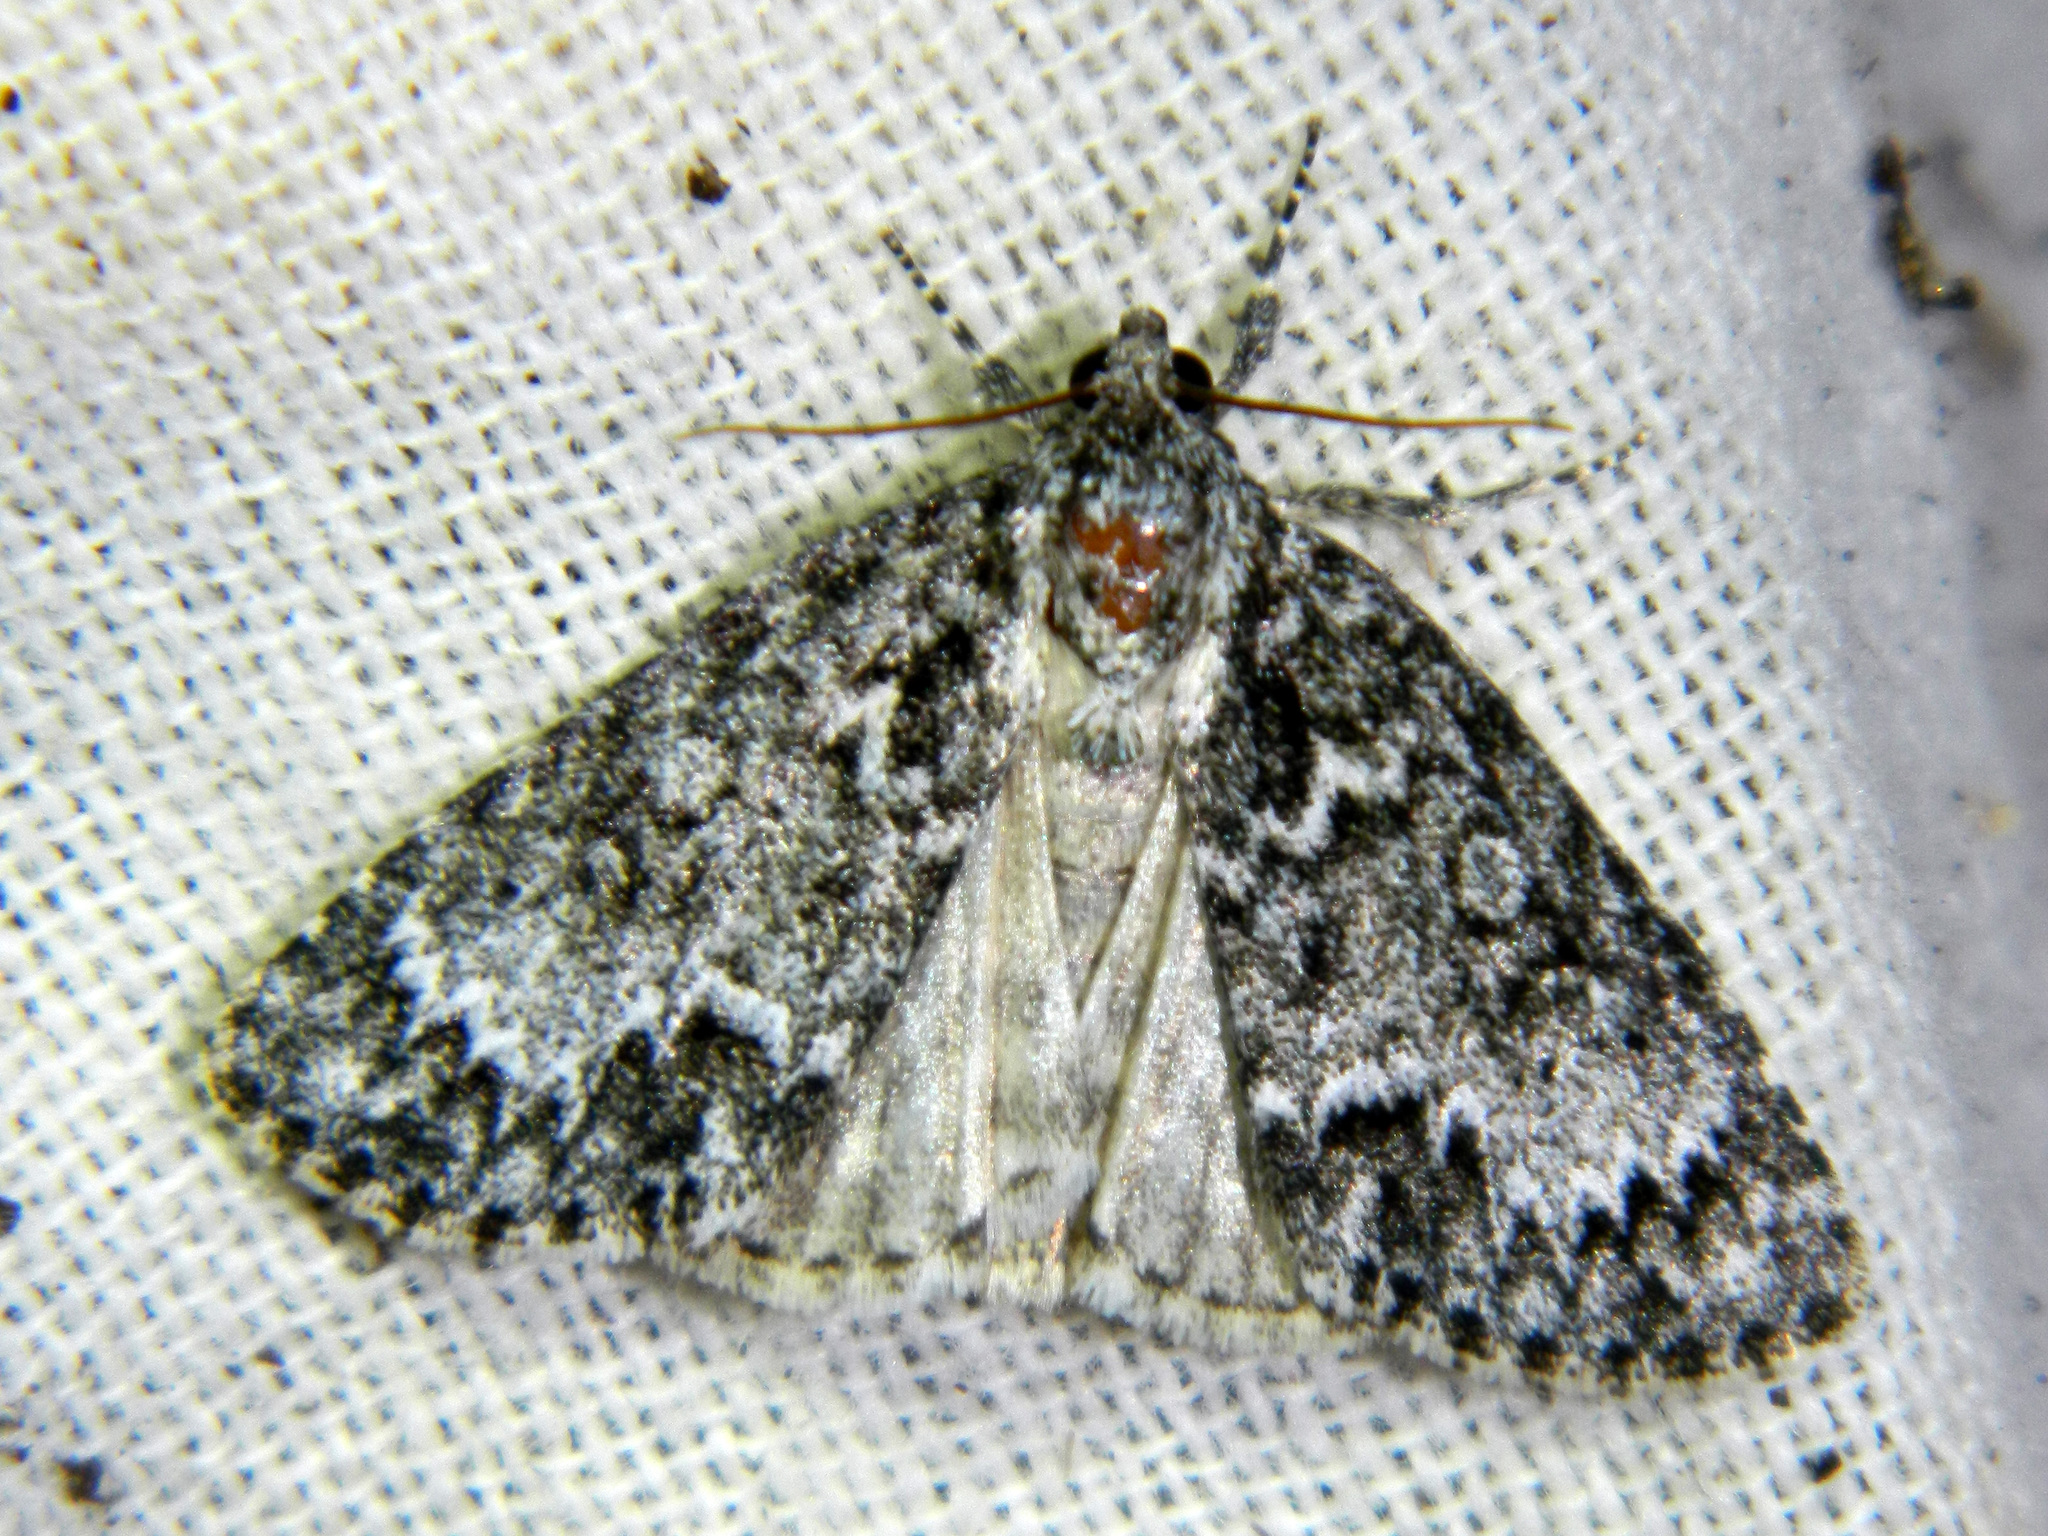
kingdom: Animalia
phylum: Arthropoda
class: Insecta
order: Lepidoptera
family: Noctuidae
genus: Acronicta
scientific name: Acronicta fragilis
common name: Fragile dagger
